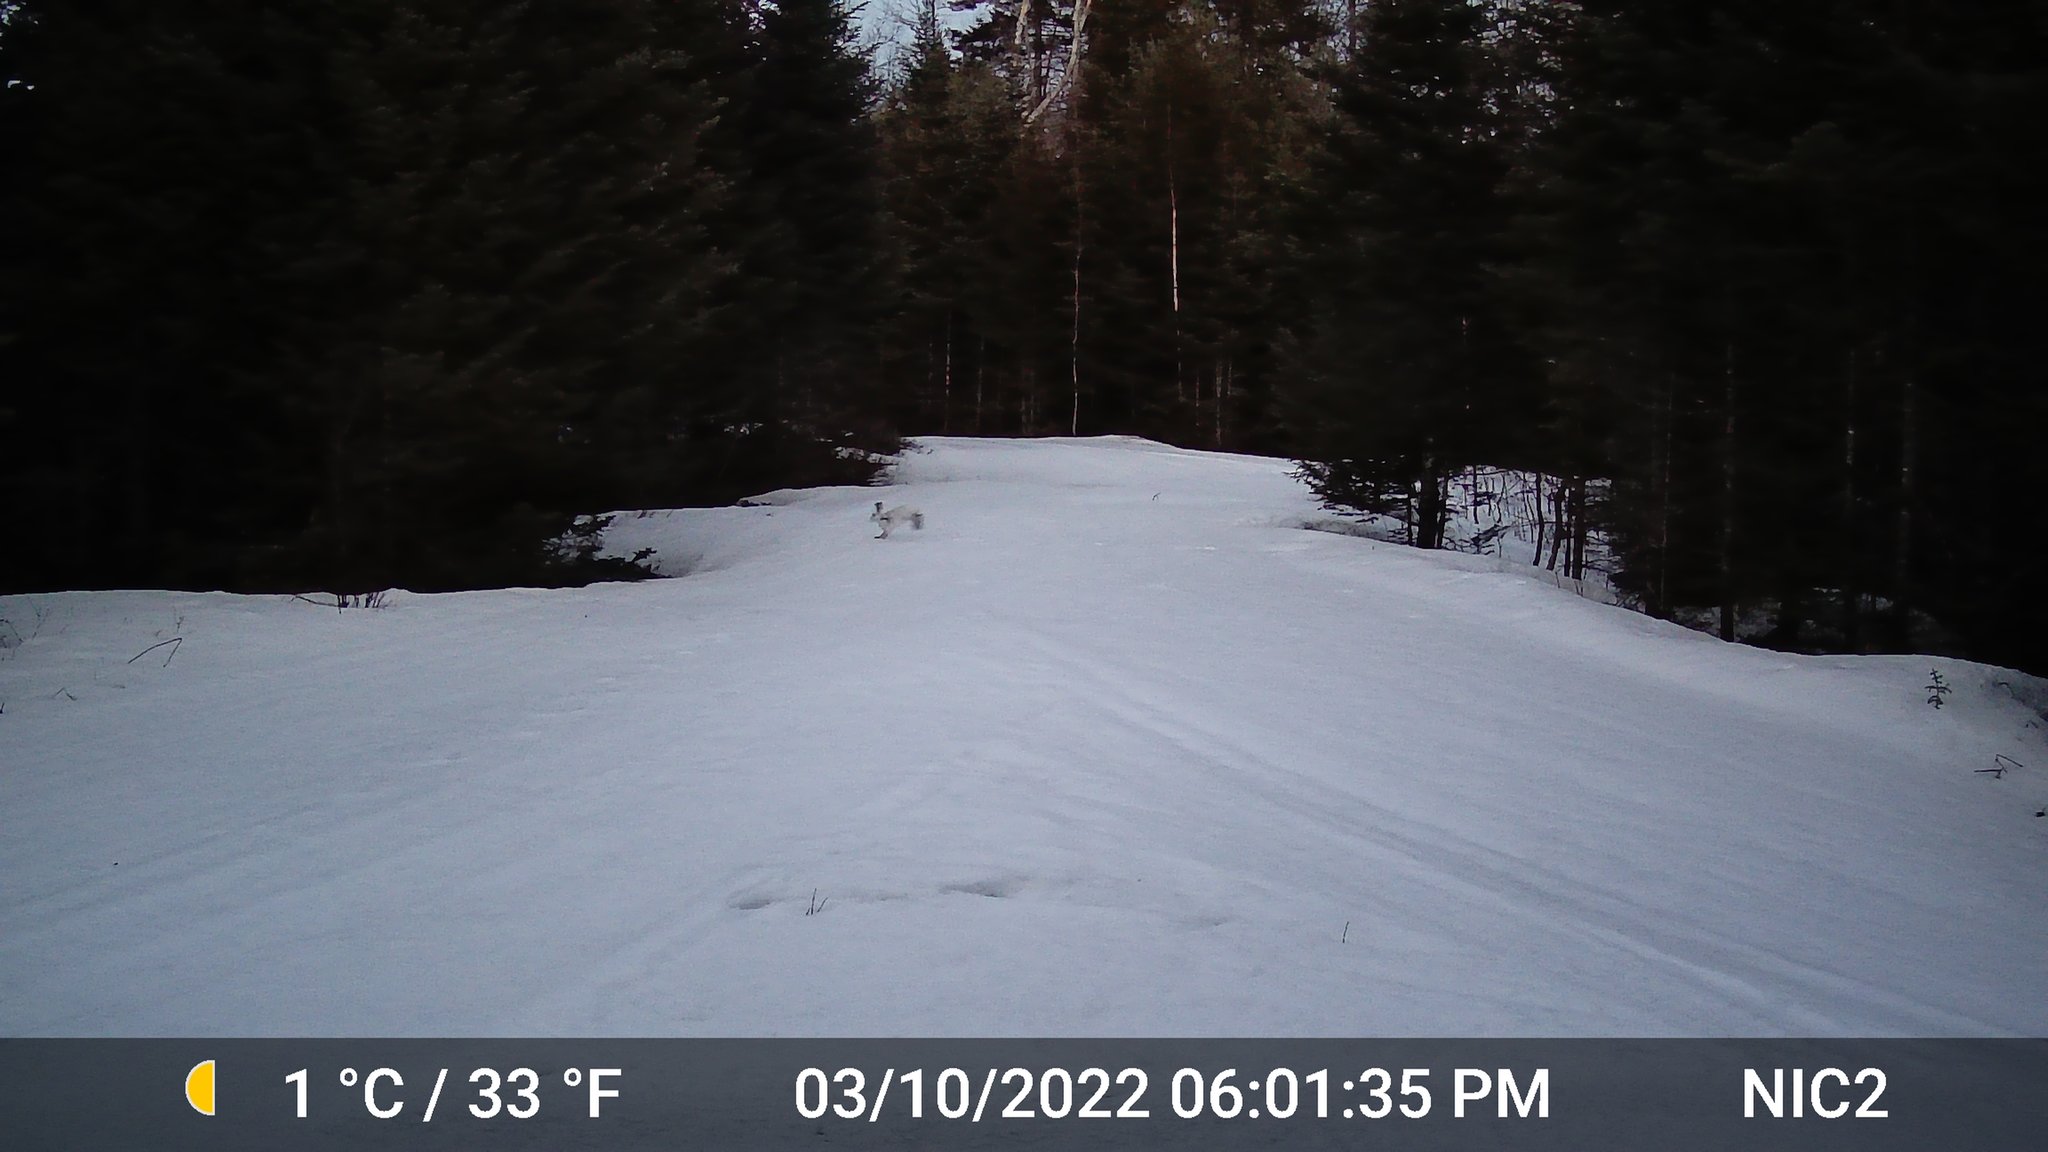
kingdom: Animalia
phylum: Chordata
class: Mammalia
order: Lagomorpha
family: Leporidae
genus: Lepus
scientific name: Lepus americanus
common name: Snowshoe hare
